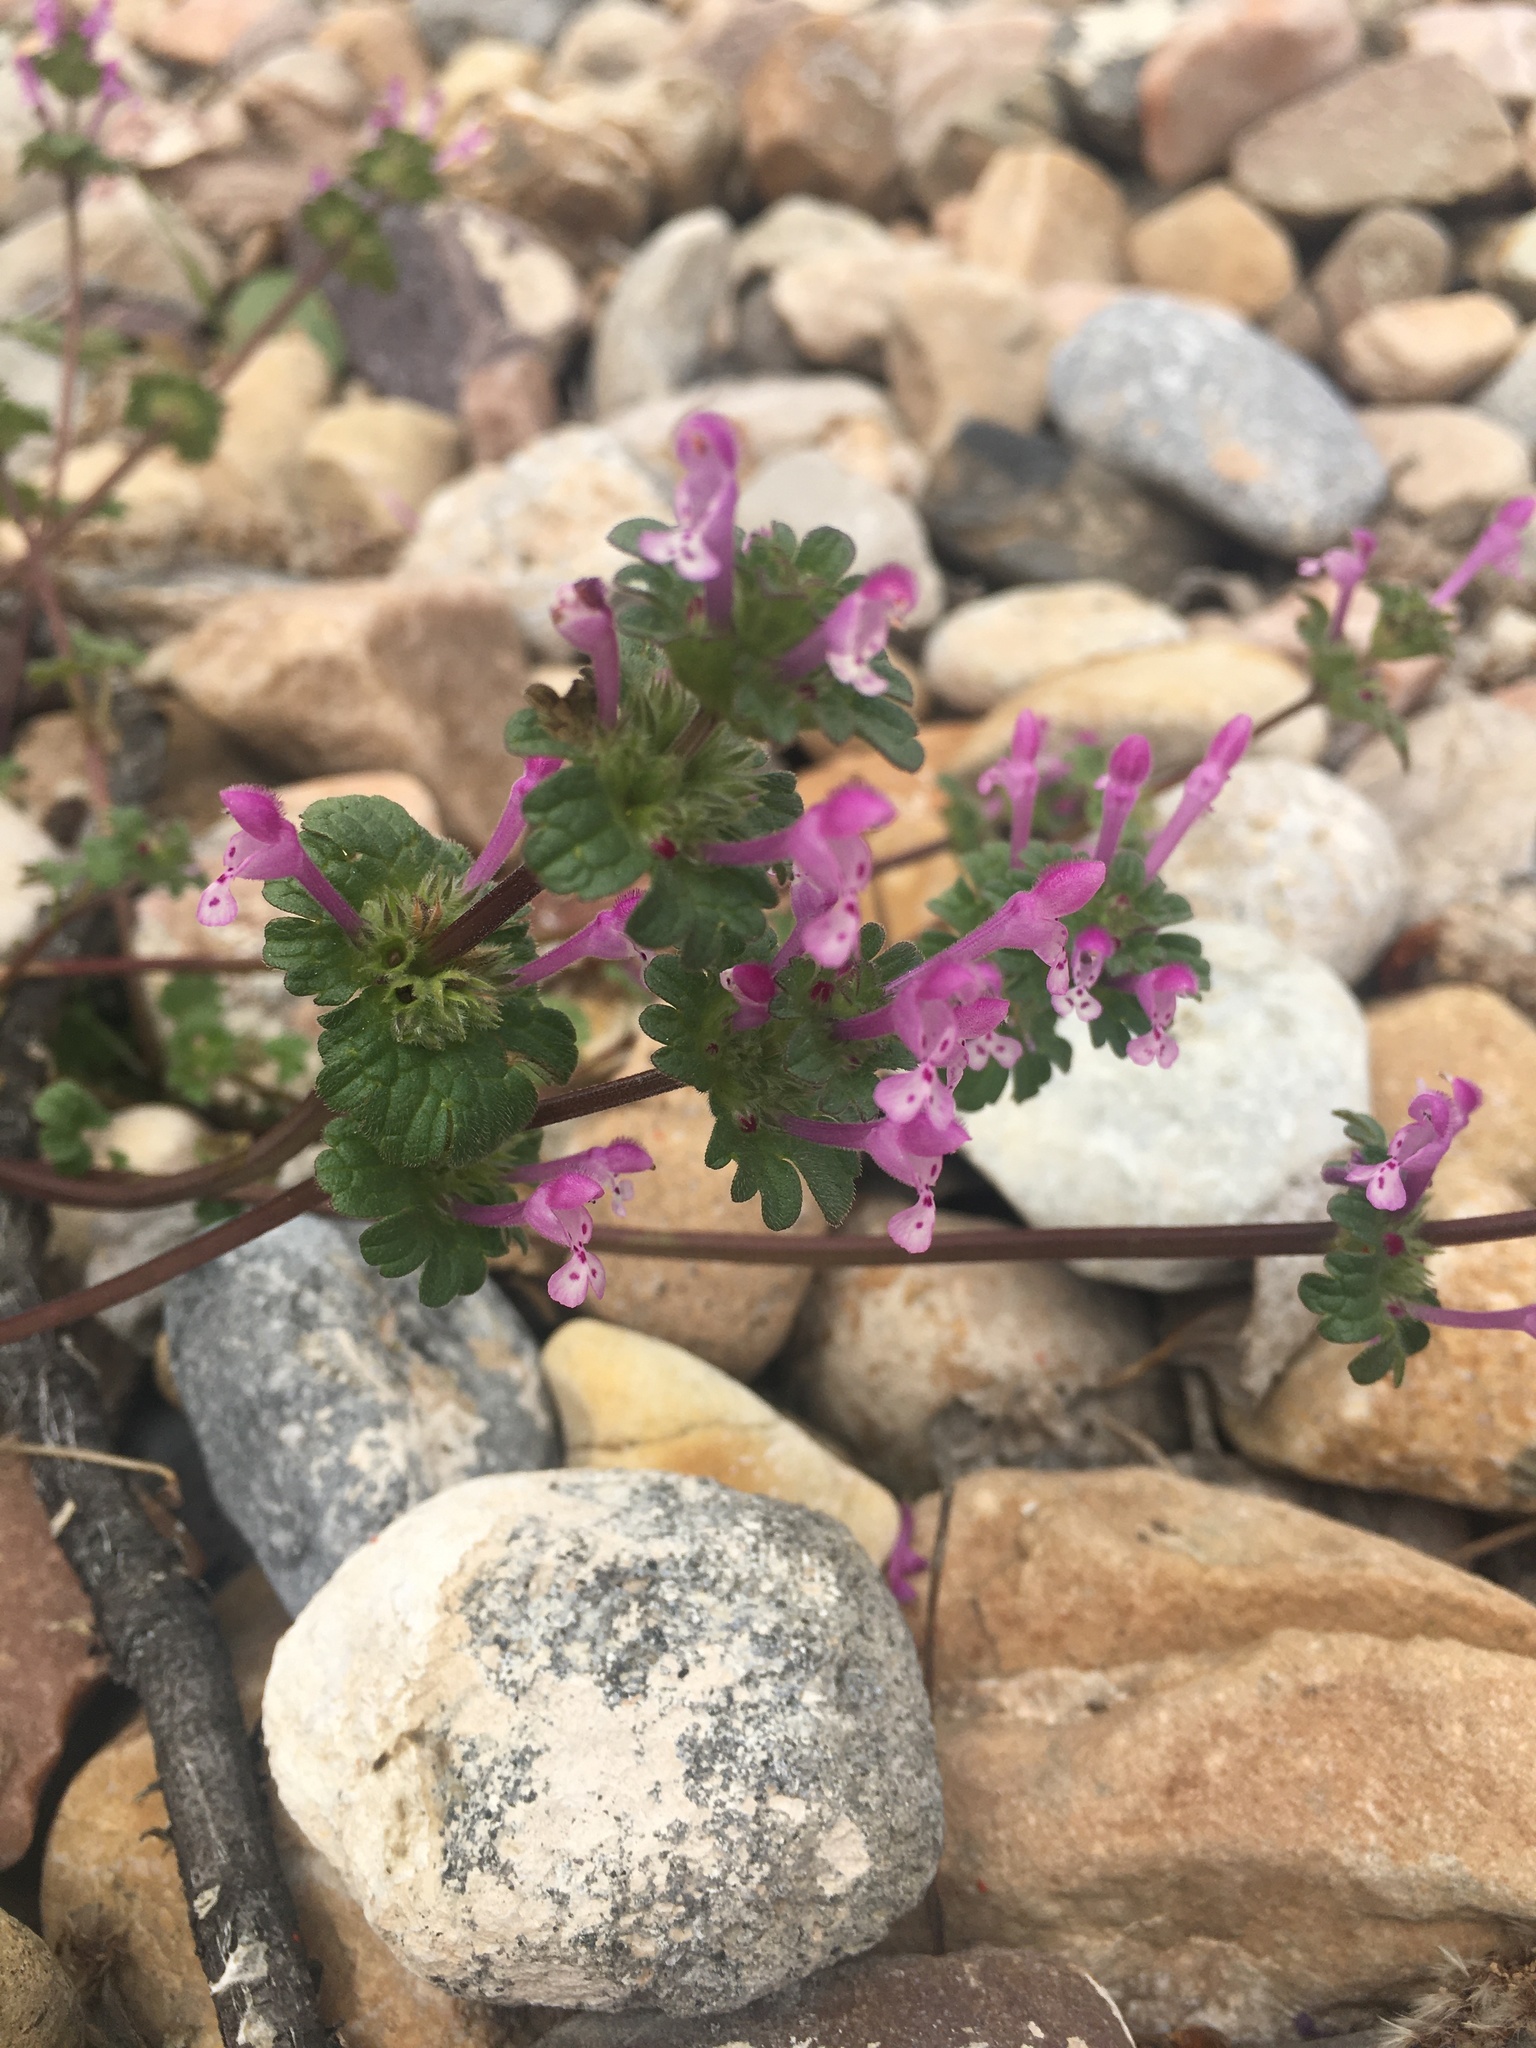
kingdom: Plantae
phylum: Tracheophyta
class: Magnoliopsida
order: Lamiales
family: Lamiaceae
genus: Lamium
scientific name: Lamium amplexicaule
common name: Henbit dead-nettle
